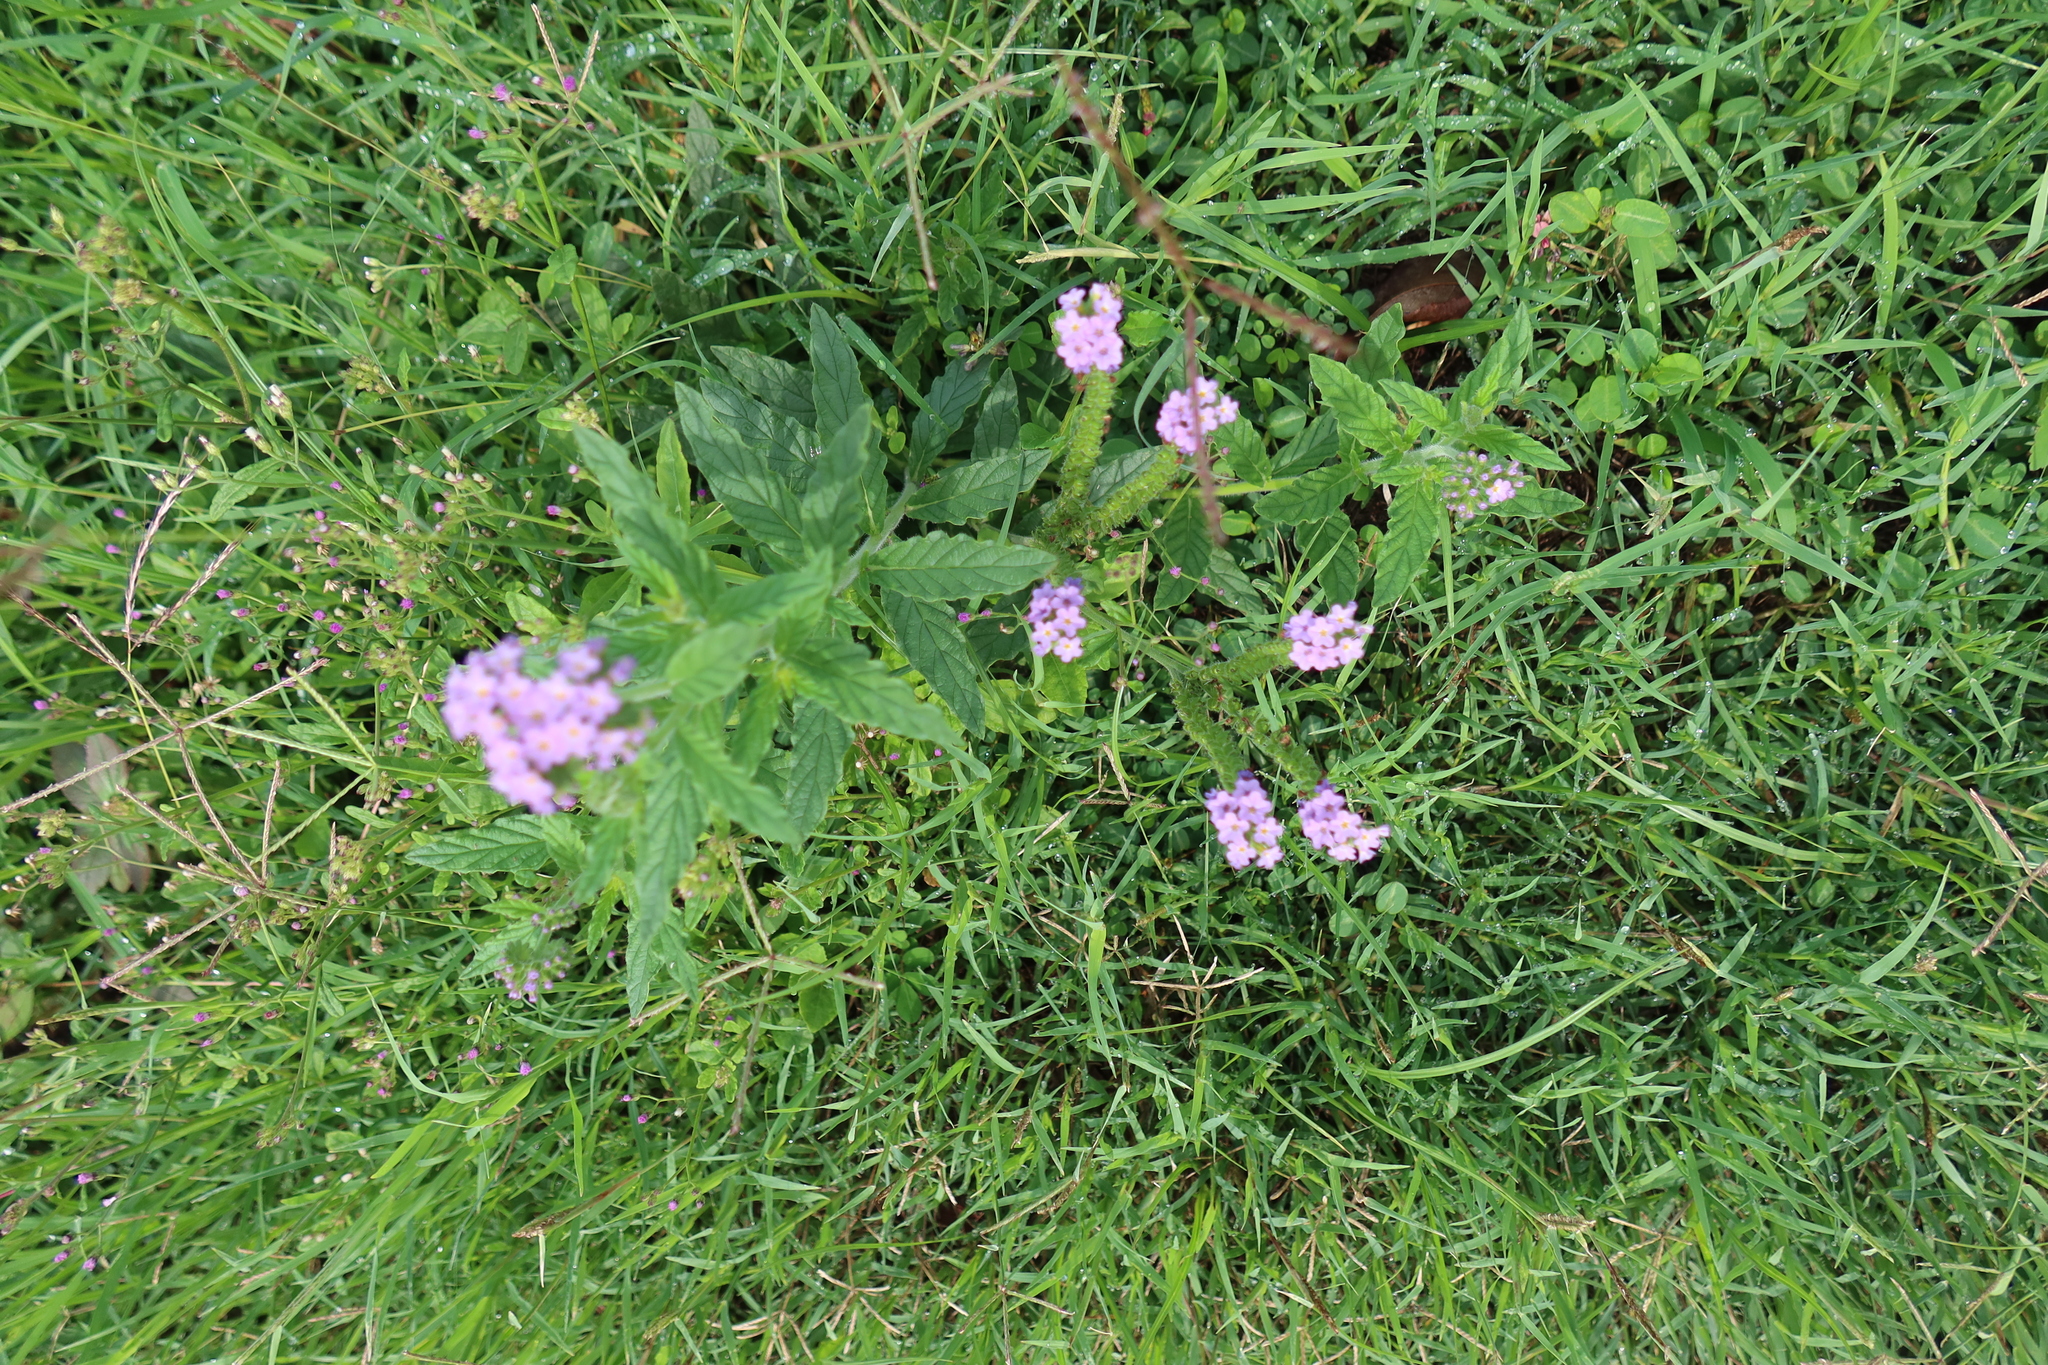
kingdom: Plantae
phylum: Tracheophyta
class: Magnoliopsida
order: Boraginales
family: Heliotropiaceae
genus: Heliotropium
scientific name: Heliotropium amplexicaule
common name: Clasping heliotrope
